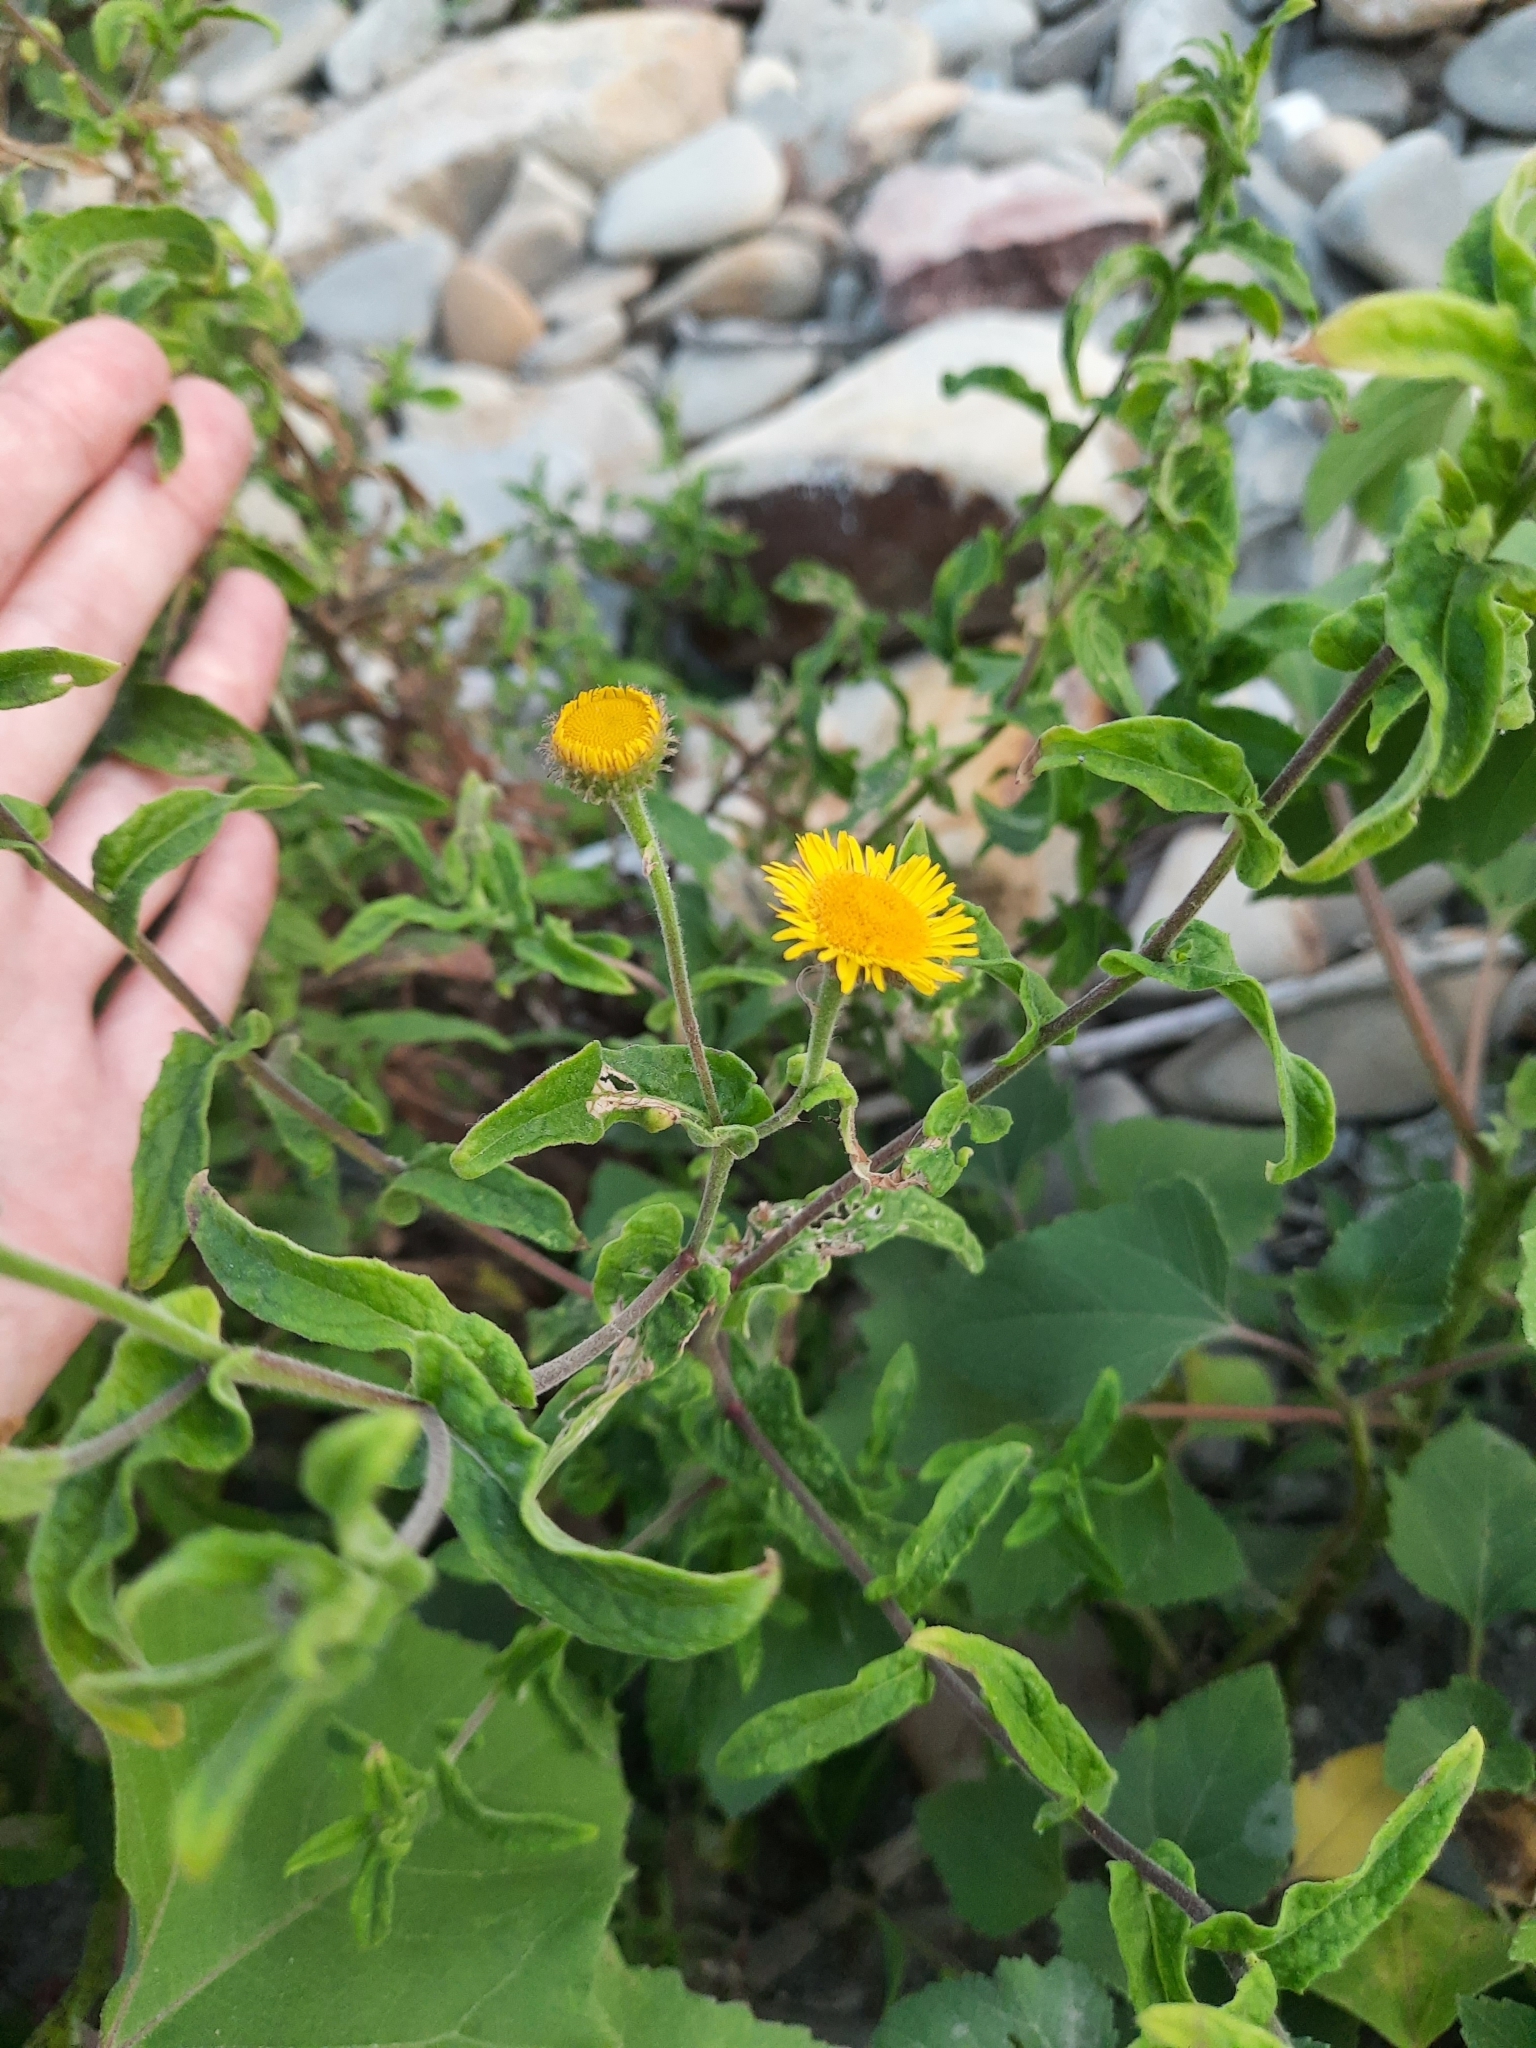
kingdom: Plantae
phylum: Tracheophyta
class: Magnoliopsida
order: Asterales
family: Asteraceae
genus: Pulicaria
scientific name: Pulicaria dysenterica
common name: Common fleabane
